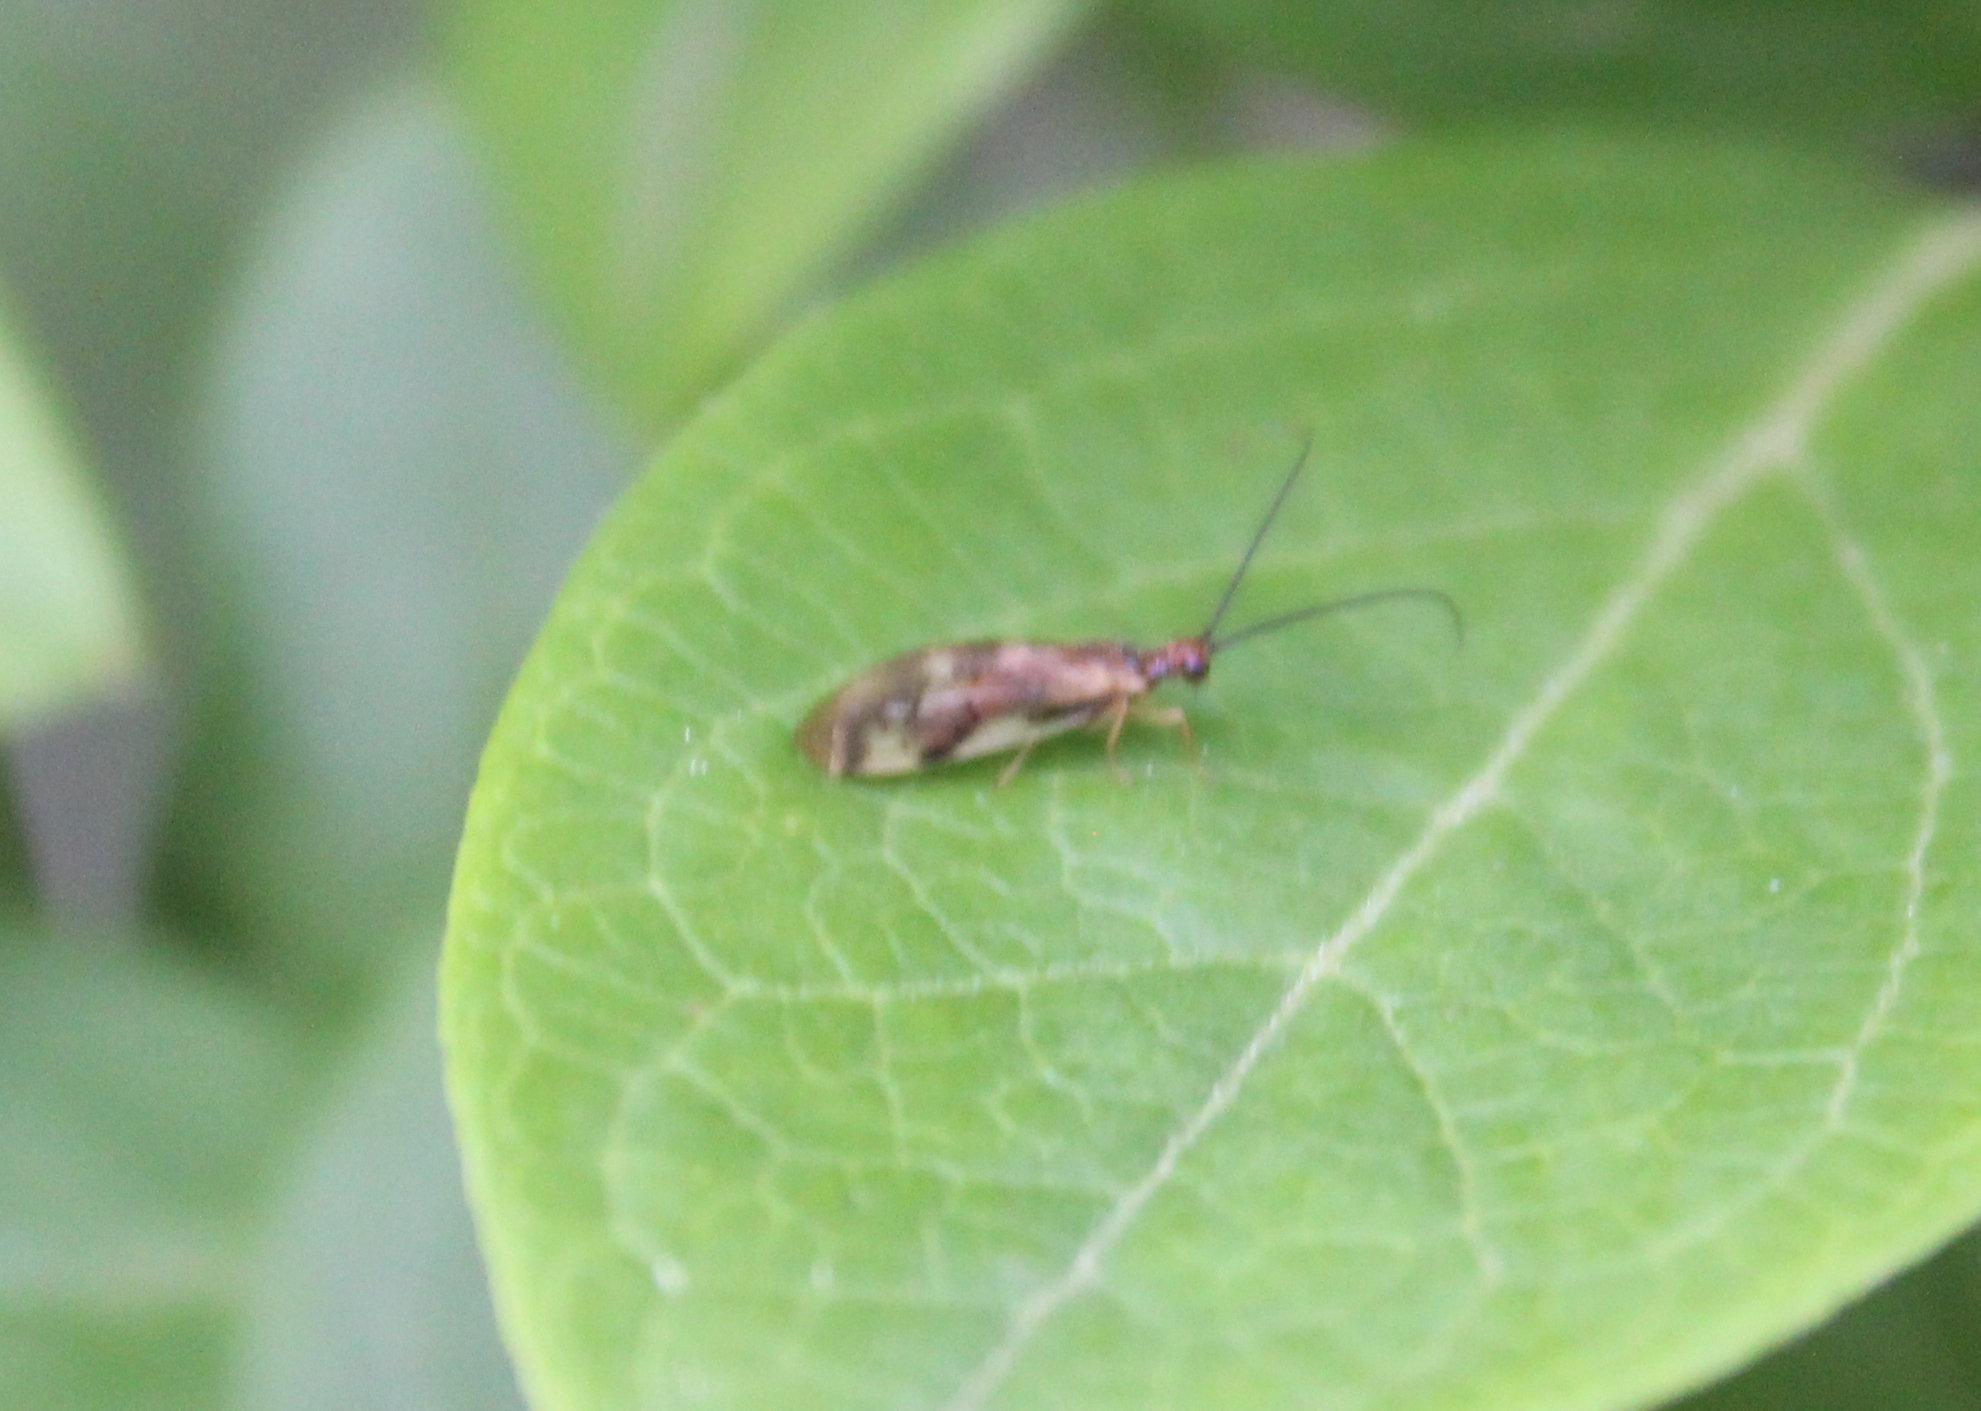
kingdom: Animalia
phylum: Arthropoda
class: Insecta
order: Neuroptera
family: Sisyridae
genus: Climacia
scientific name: Climacia areolaris
